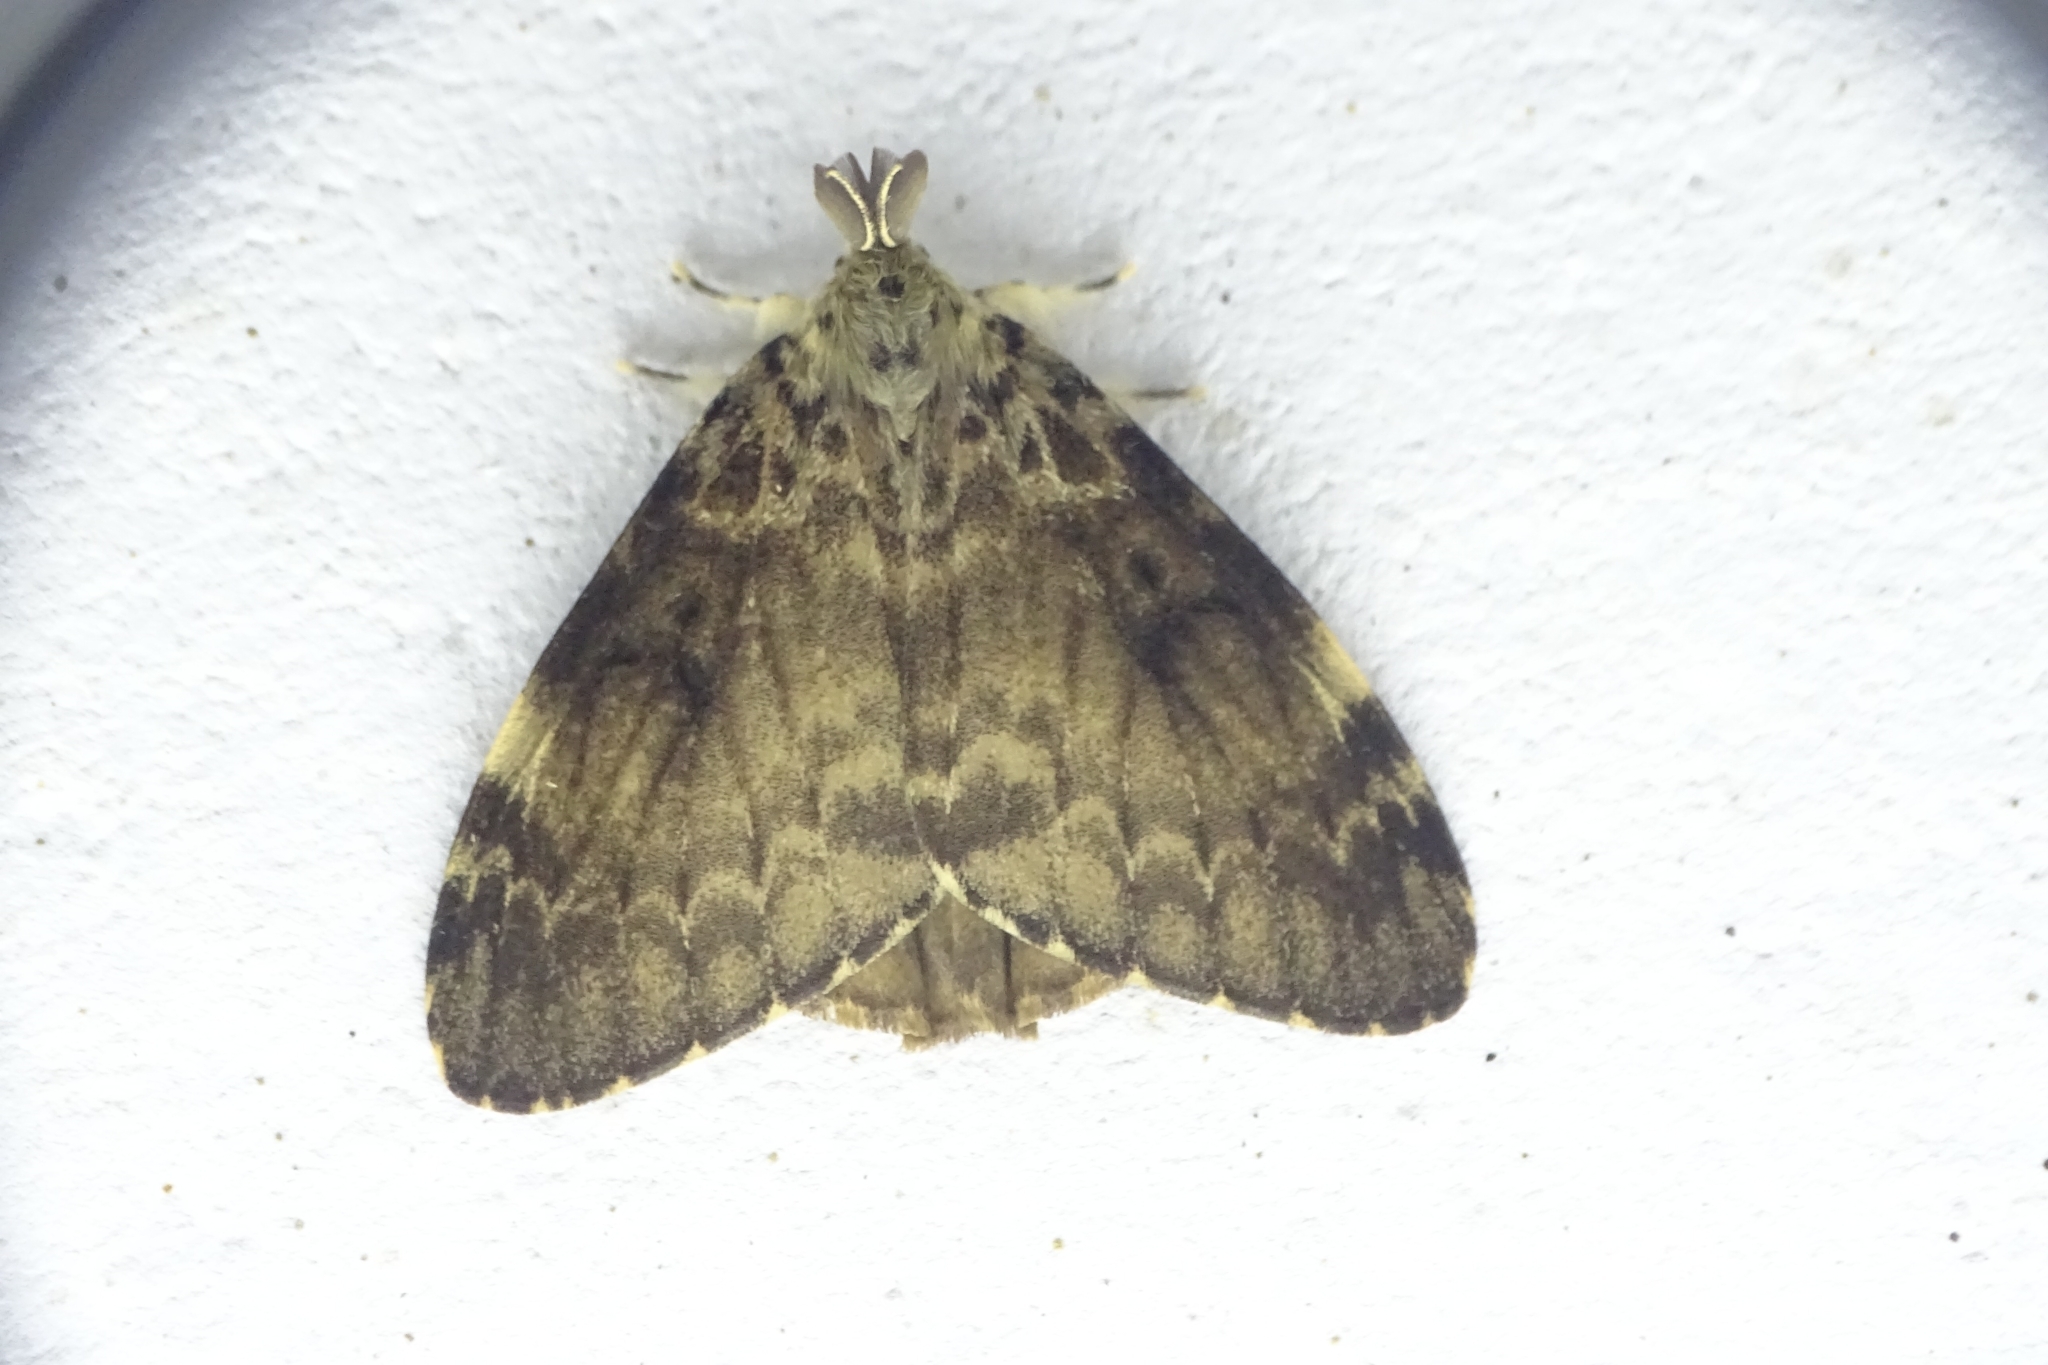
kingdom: Animalia
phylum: Arthropoda
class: Insecta
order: Lepidoptera
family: Erebidae
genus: Lymantria
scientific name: Lymantria ampla
